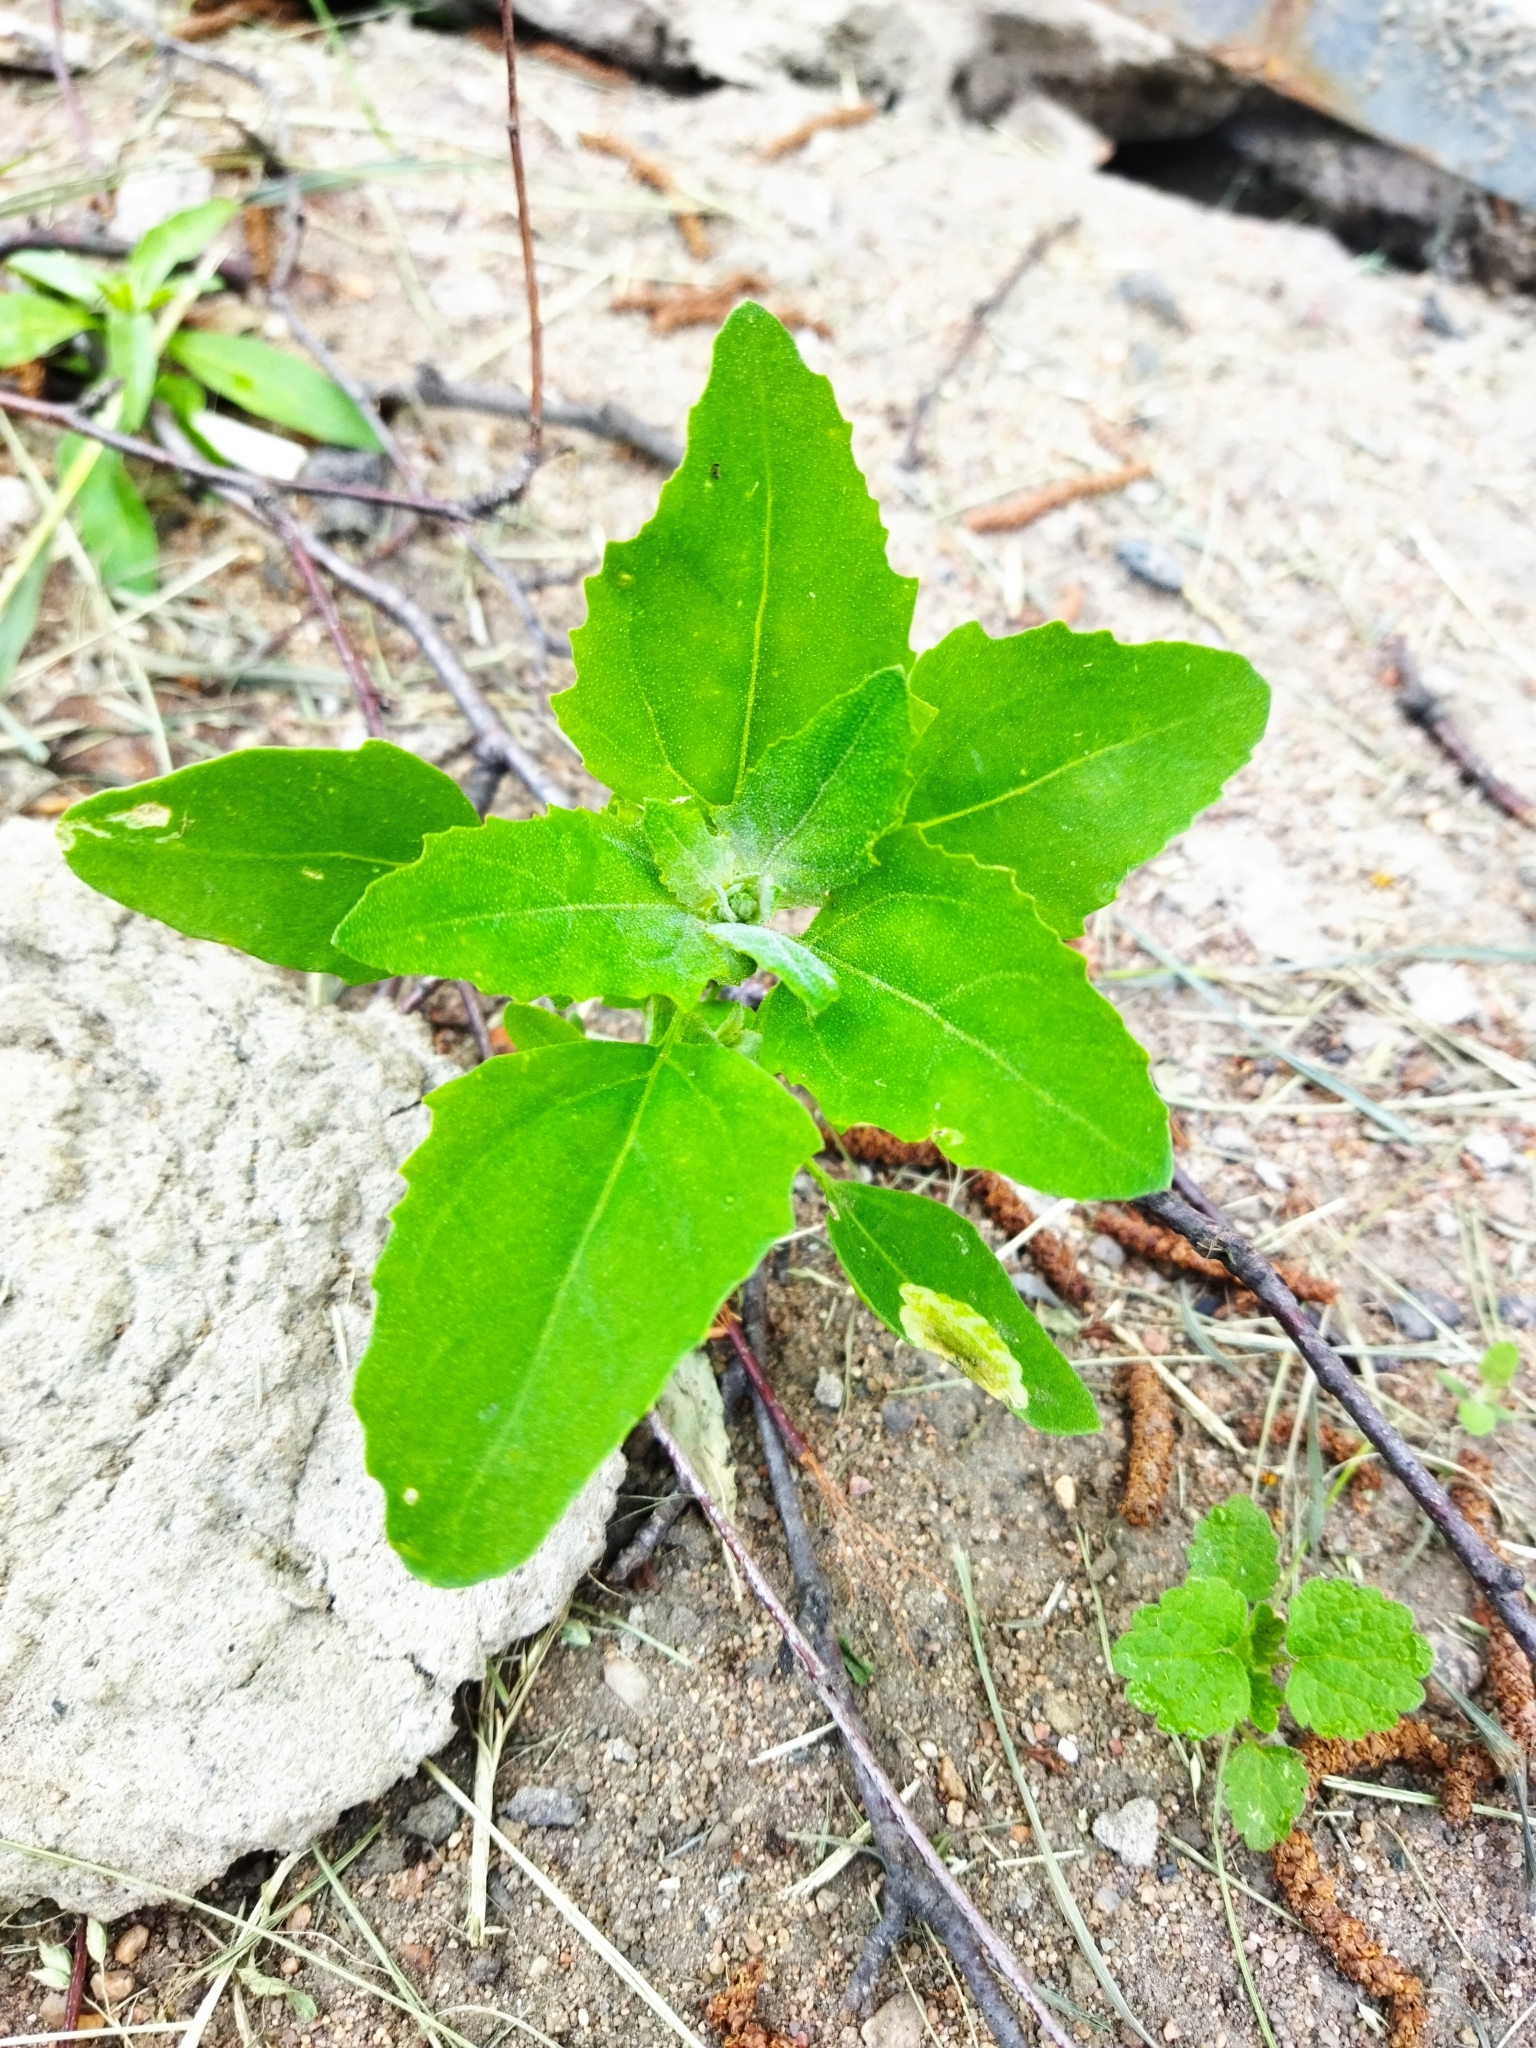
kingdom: Plantae
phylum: Tracheophyta
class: Magnoliopsida
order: Caryophyllales
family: Amaranthaceae
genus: Chenopodium
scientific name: Chenopodium album
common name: Fat-hen
